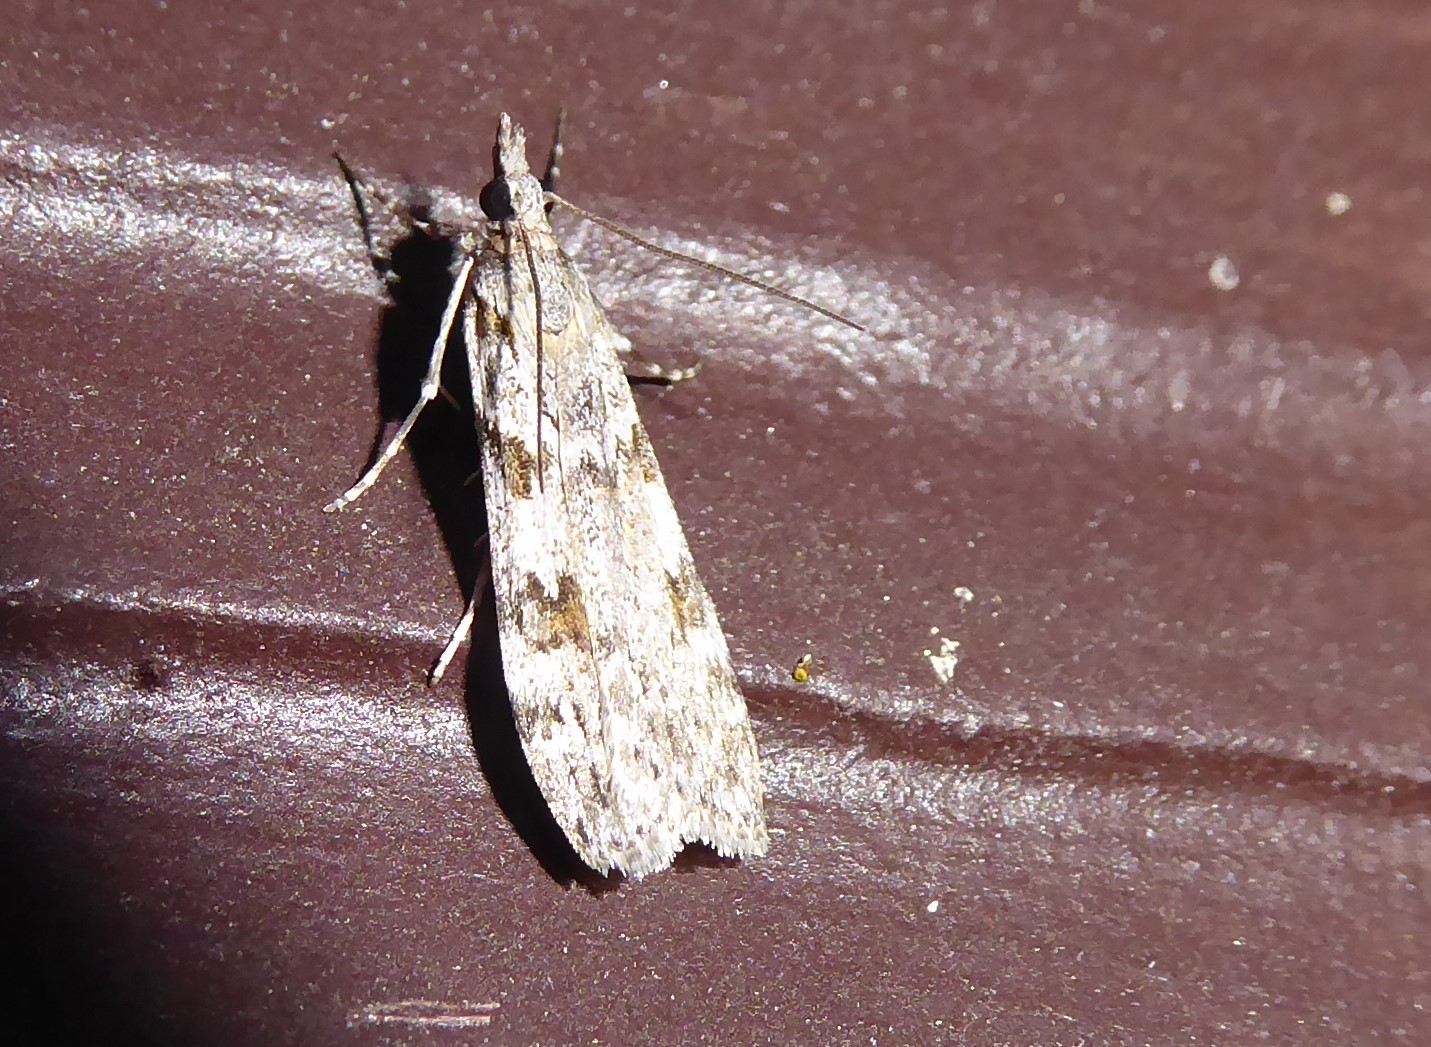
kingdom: Animalia
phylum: Arthropoda
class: Insecta
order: Lepidoptera
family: Crambidae
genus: Scoparia
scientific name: Scoparia halopis
